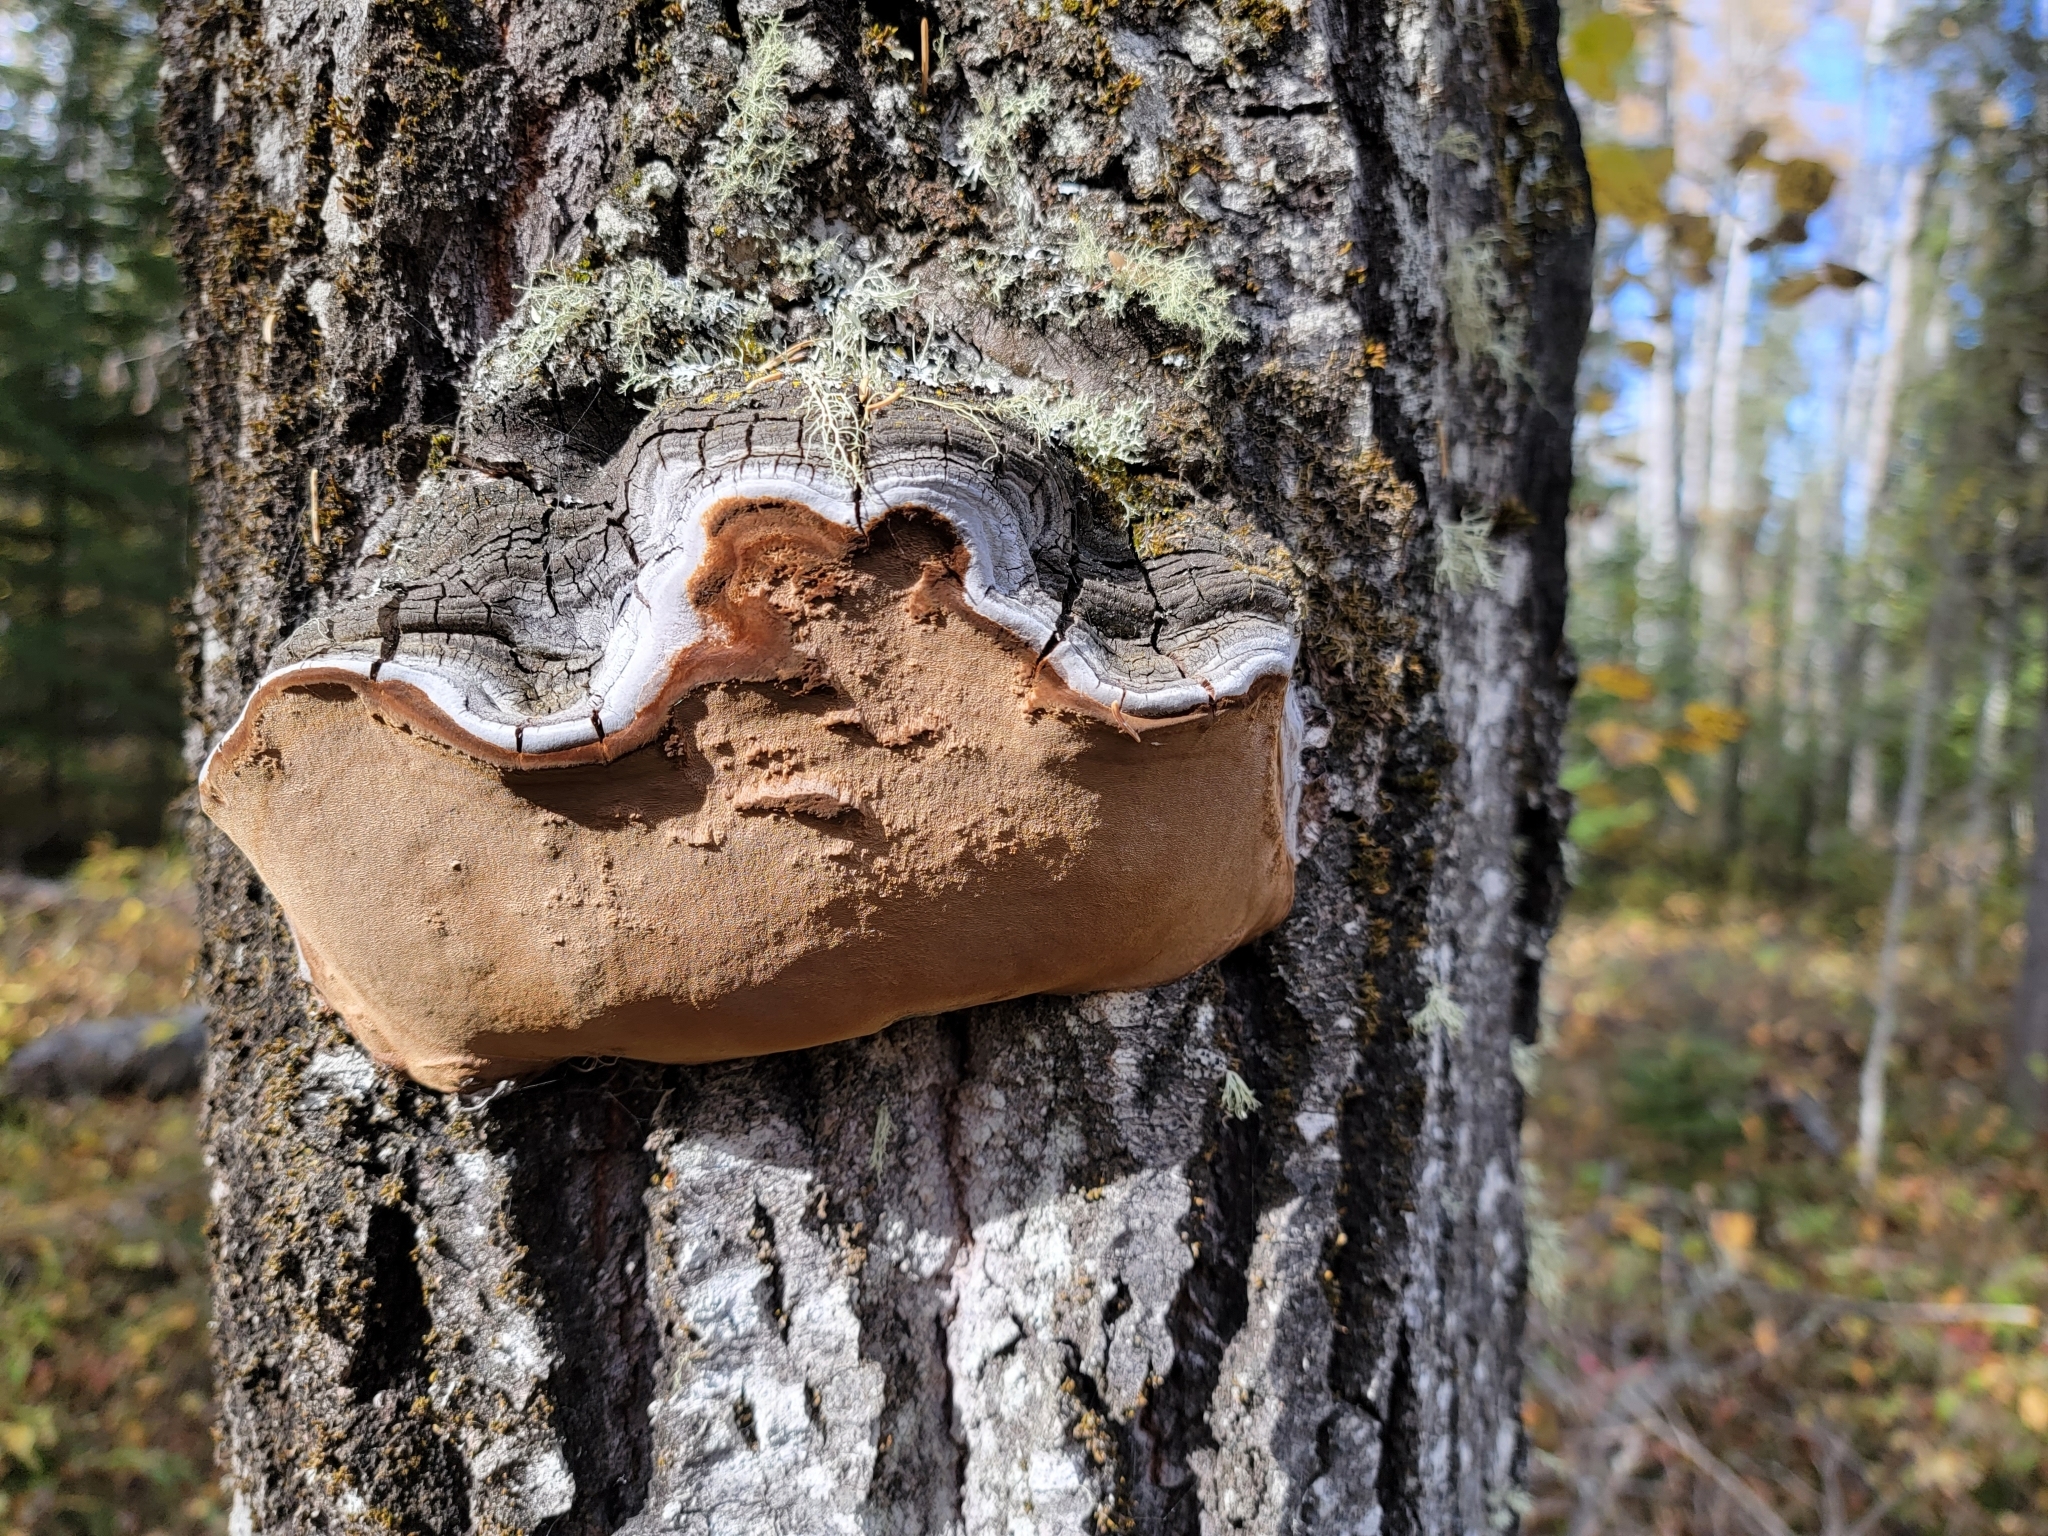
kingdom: Fungi
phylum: Basidiomycota
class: Agaricomycetes
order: Hymenochaetales
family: Hymenochaetaceae
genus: Phellinus
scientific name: Phellinus tremulae
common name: Aspen bracket
